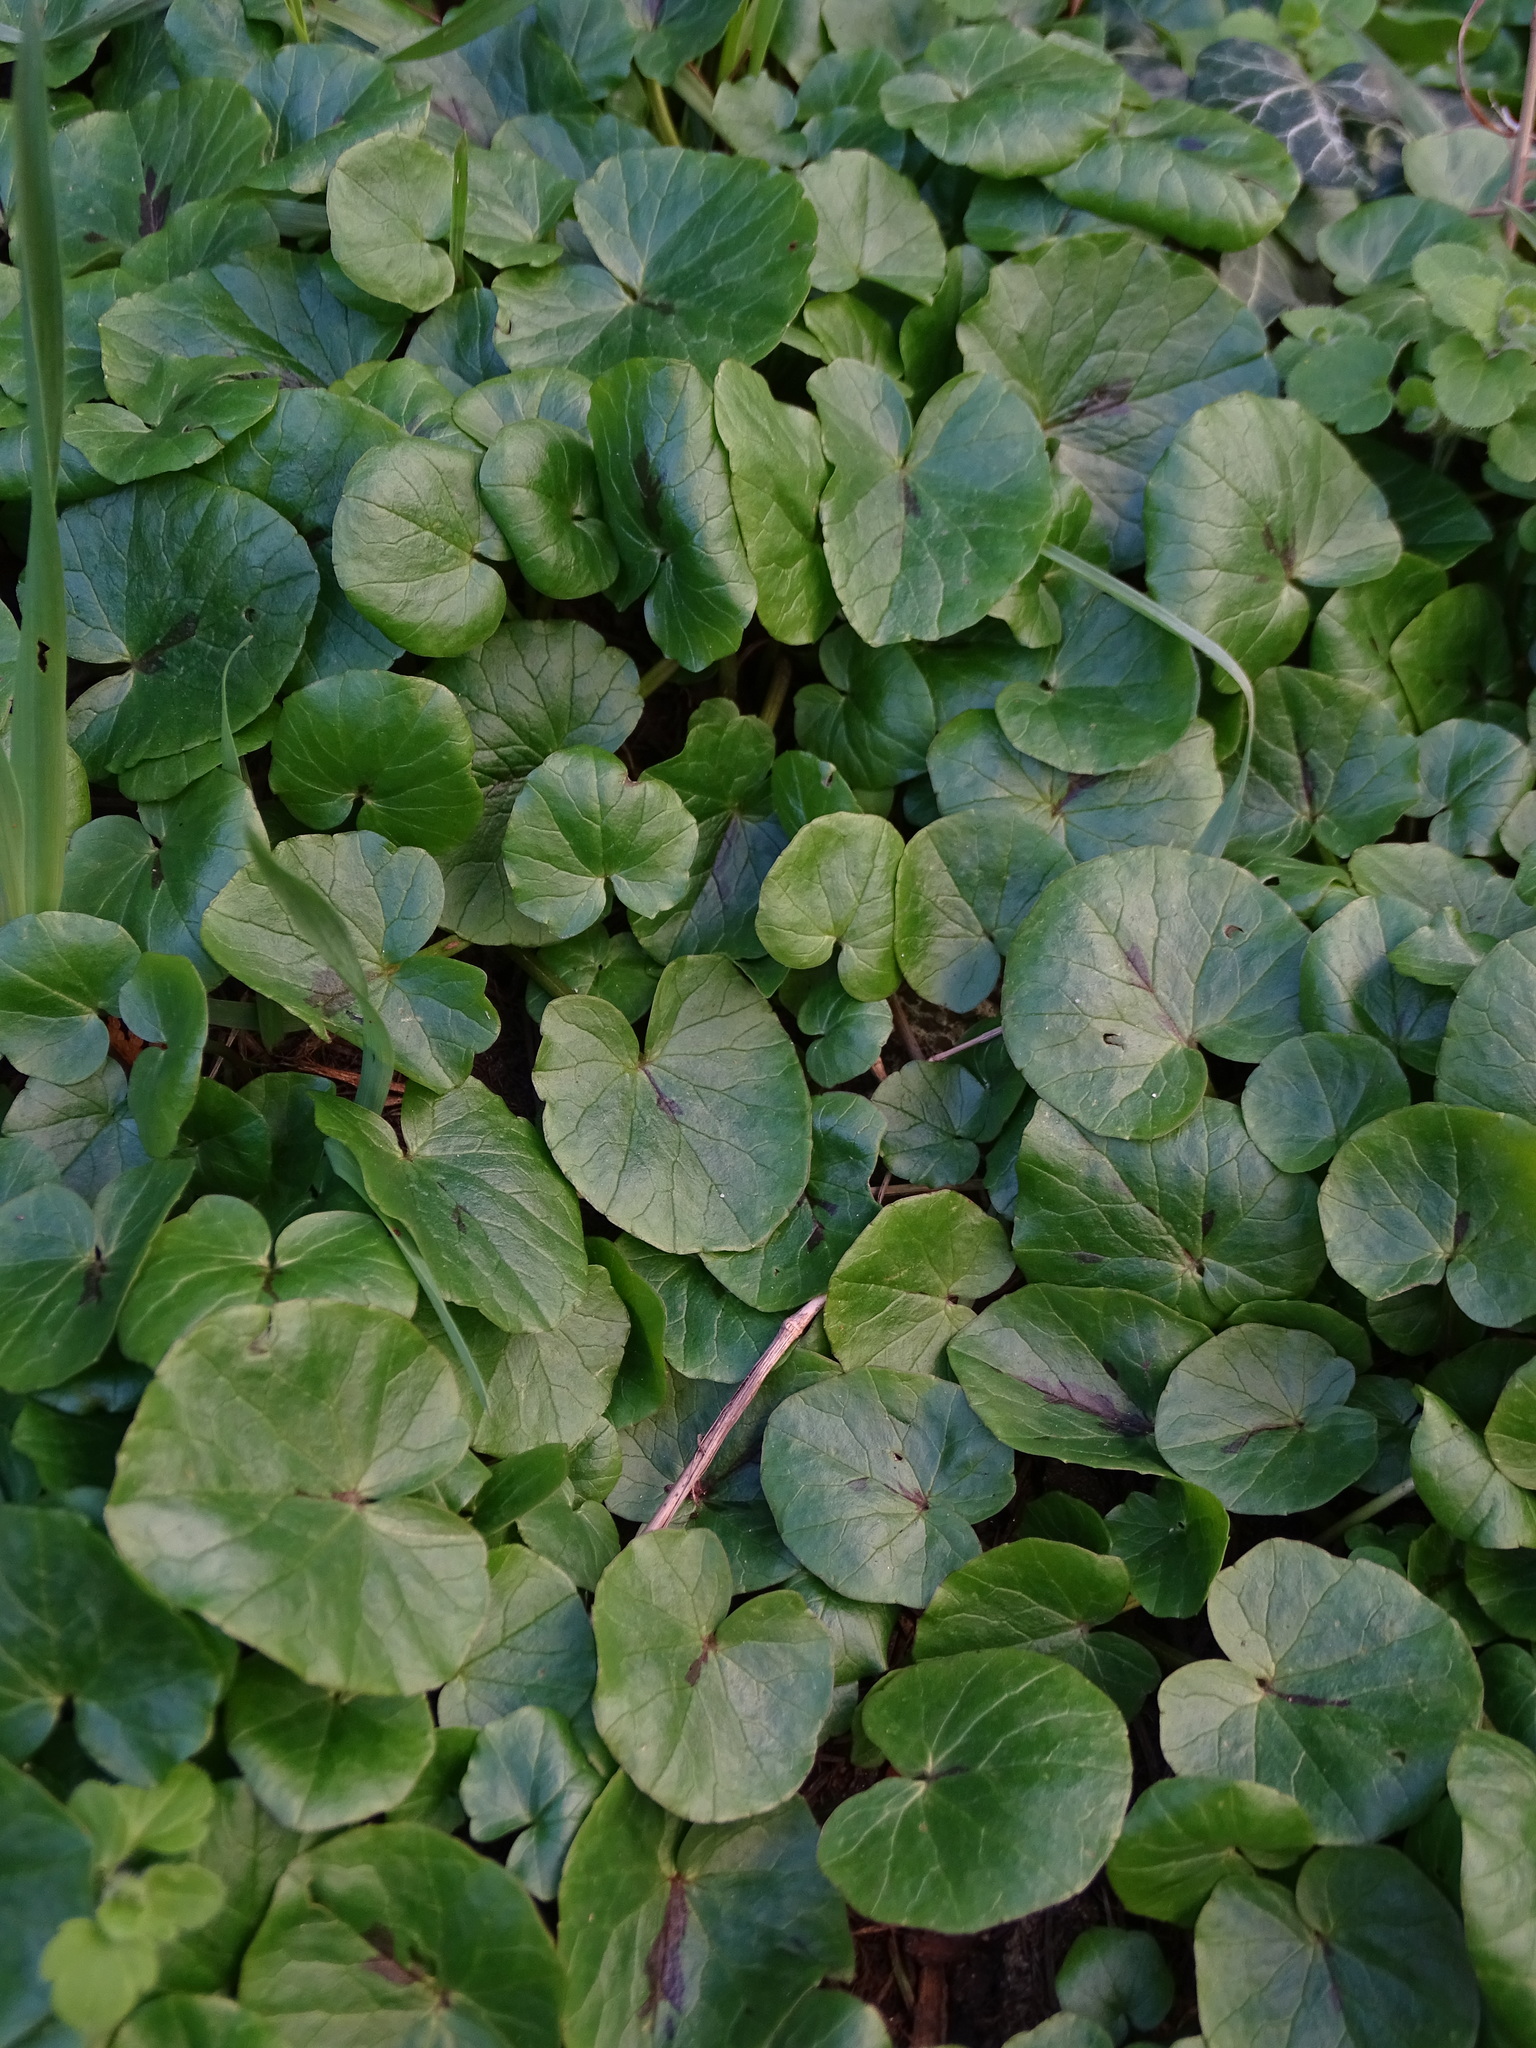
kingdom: Plantae
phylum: Tracheophyta
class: Magnoliopsida
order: Ranunculales
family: Ranunculaceae
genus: Ficaria
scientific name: Ficaria verna
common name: Lesser celandine
